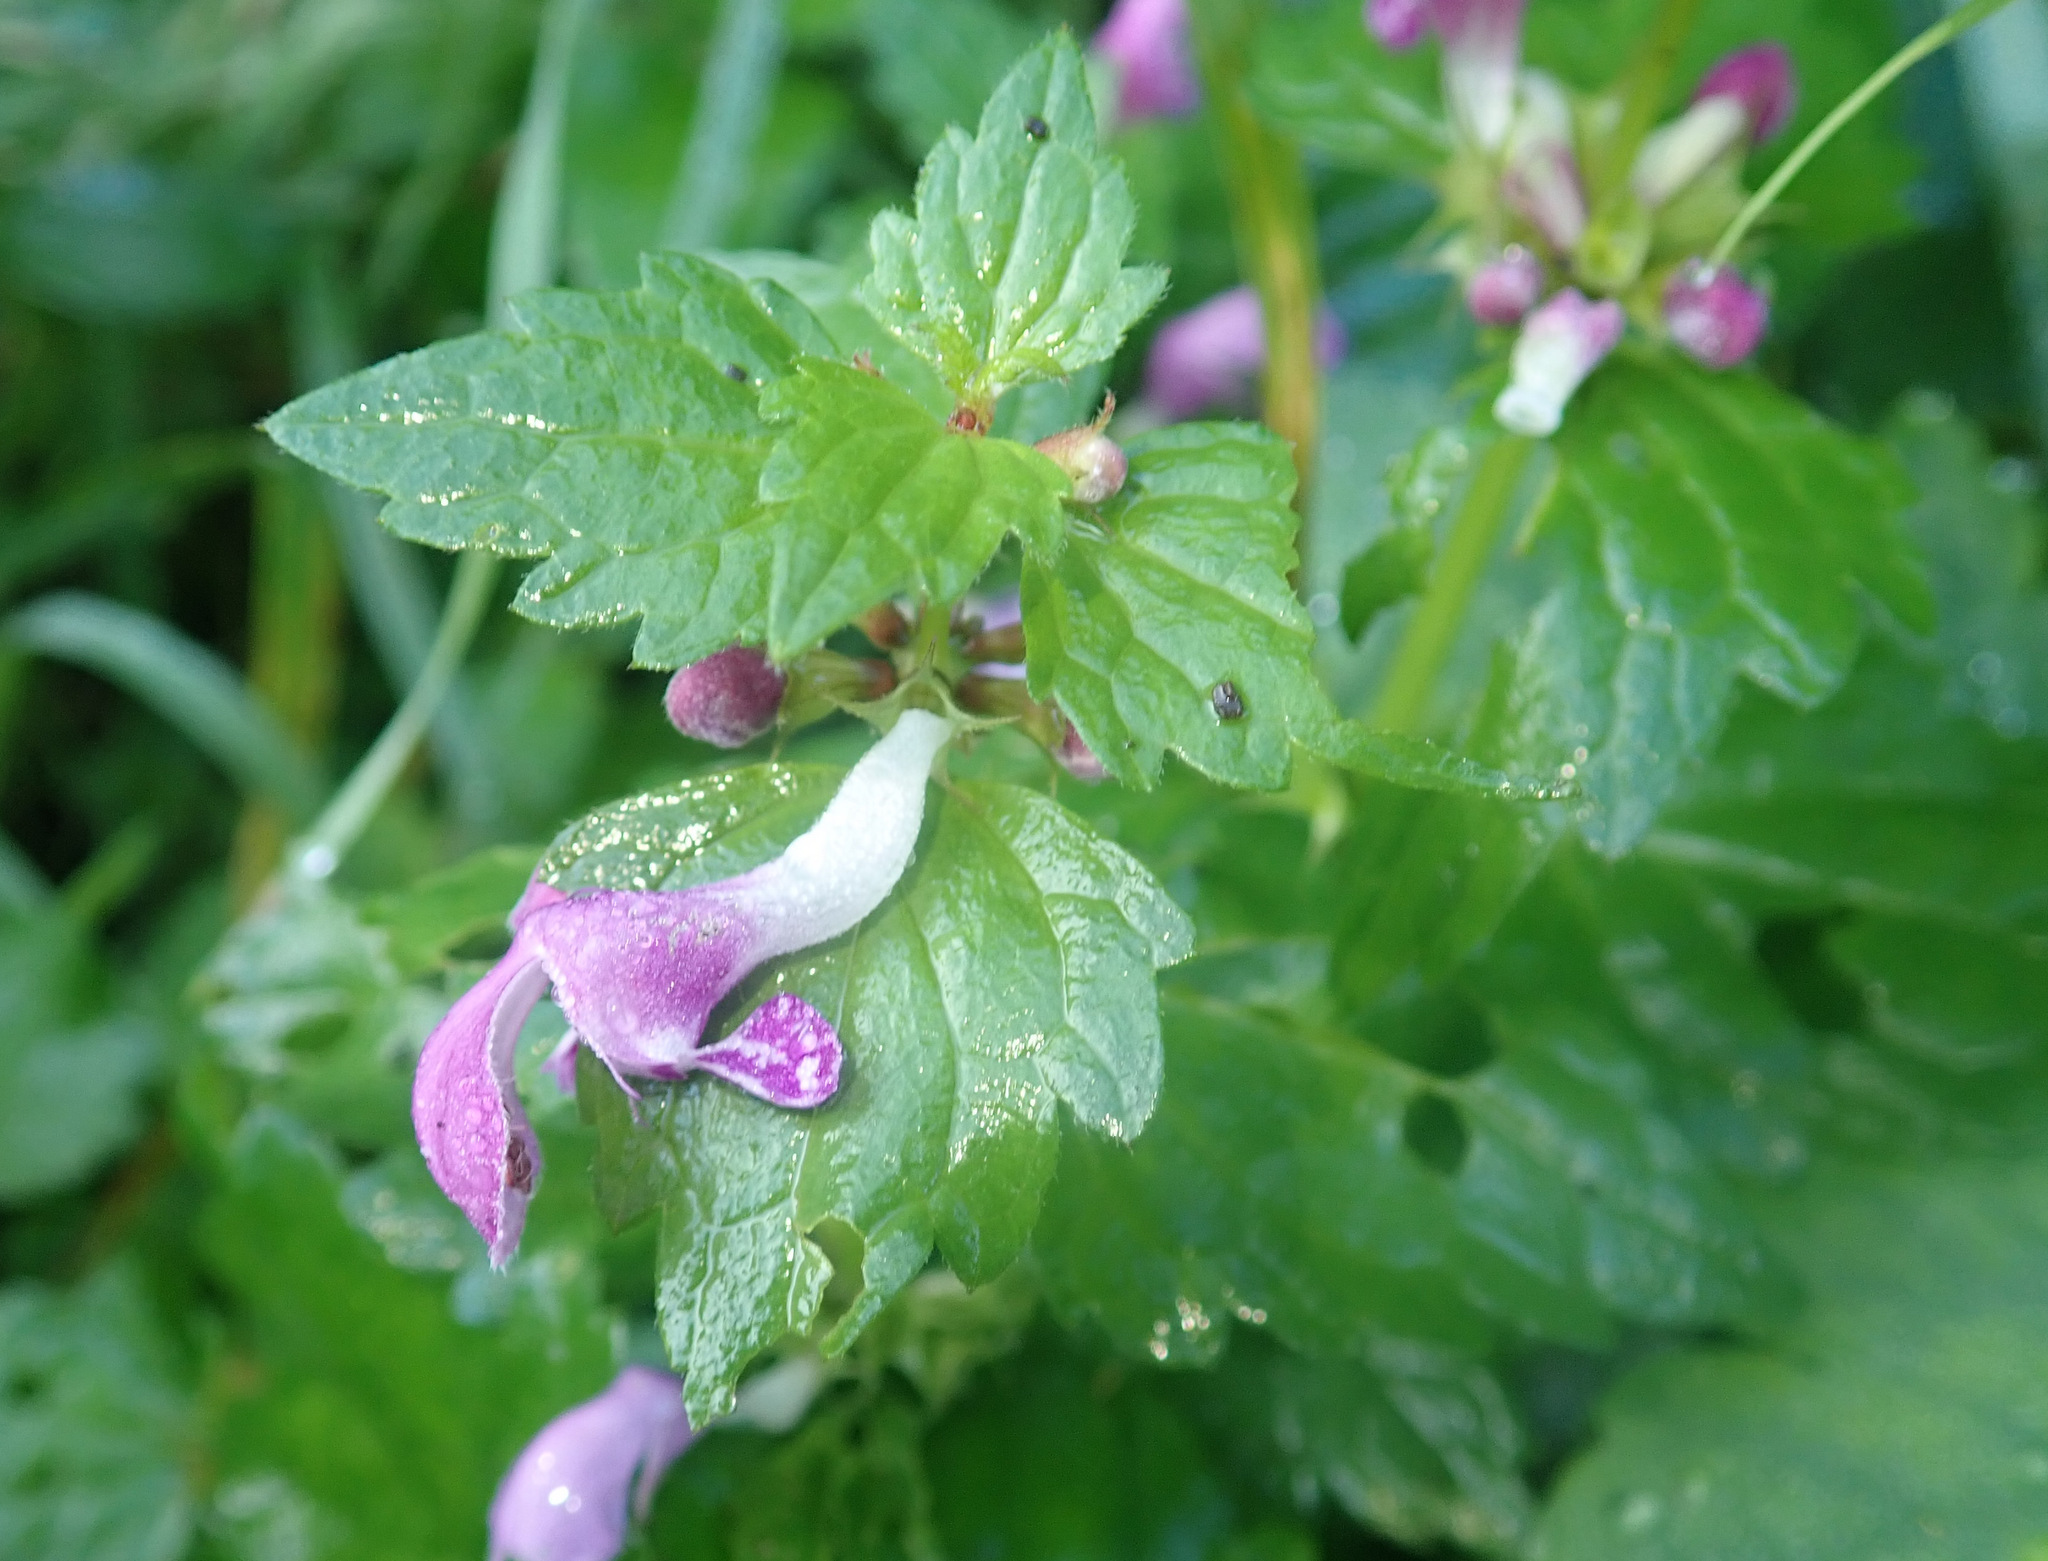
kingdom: Plantae
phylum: Tracheophyta
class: Magnoliopsida
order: Lamiales
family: Lamiaceae
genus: Lamium
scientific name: Lamium maculatum
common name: Spotted dead-nettle
